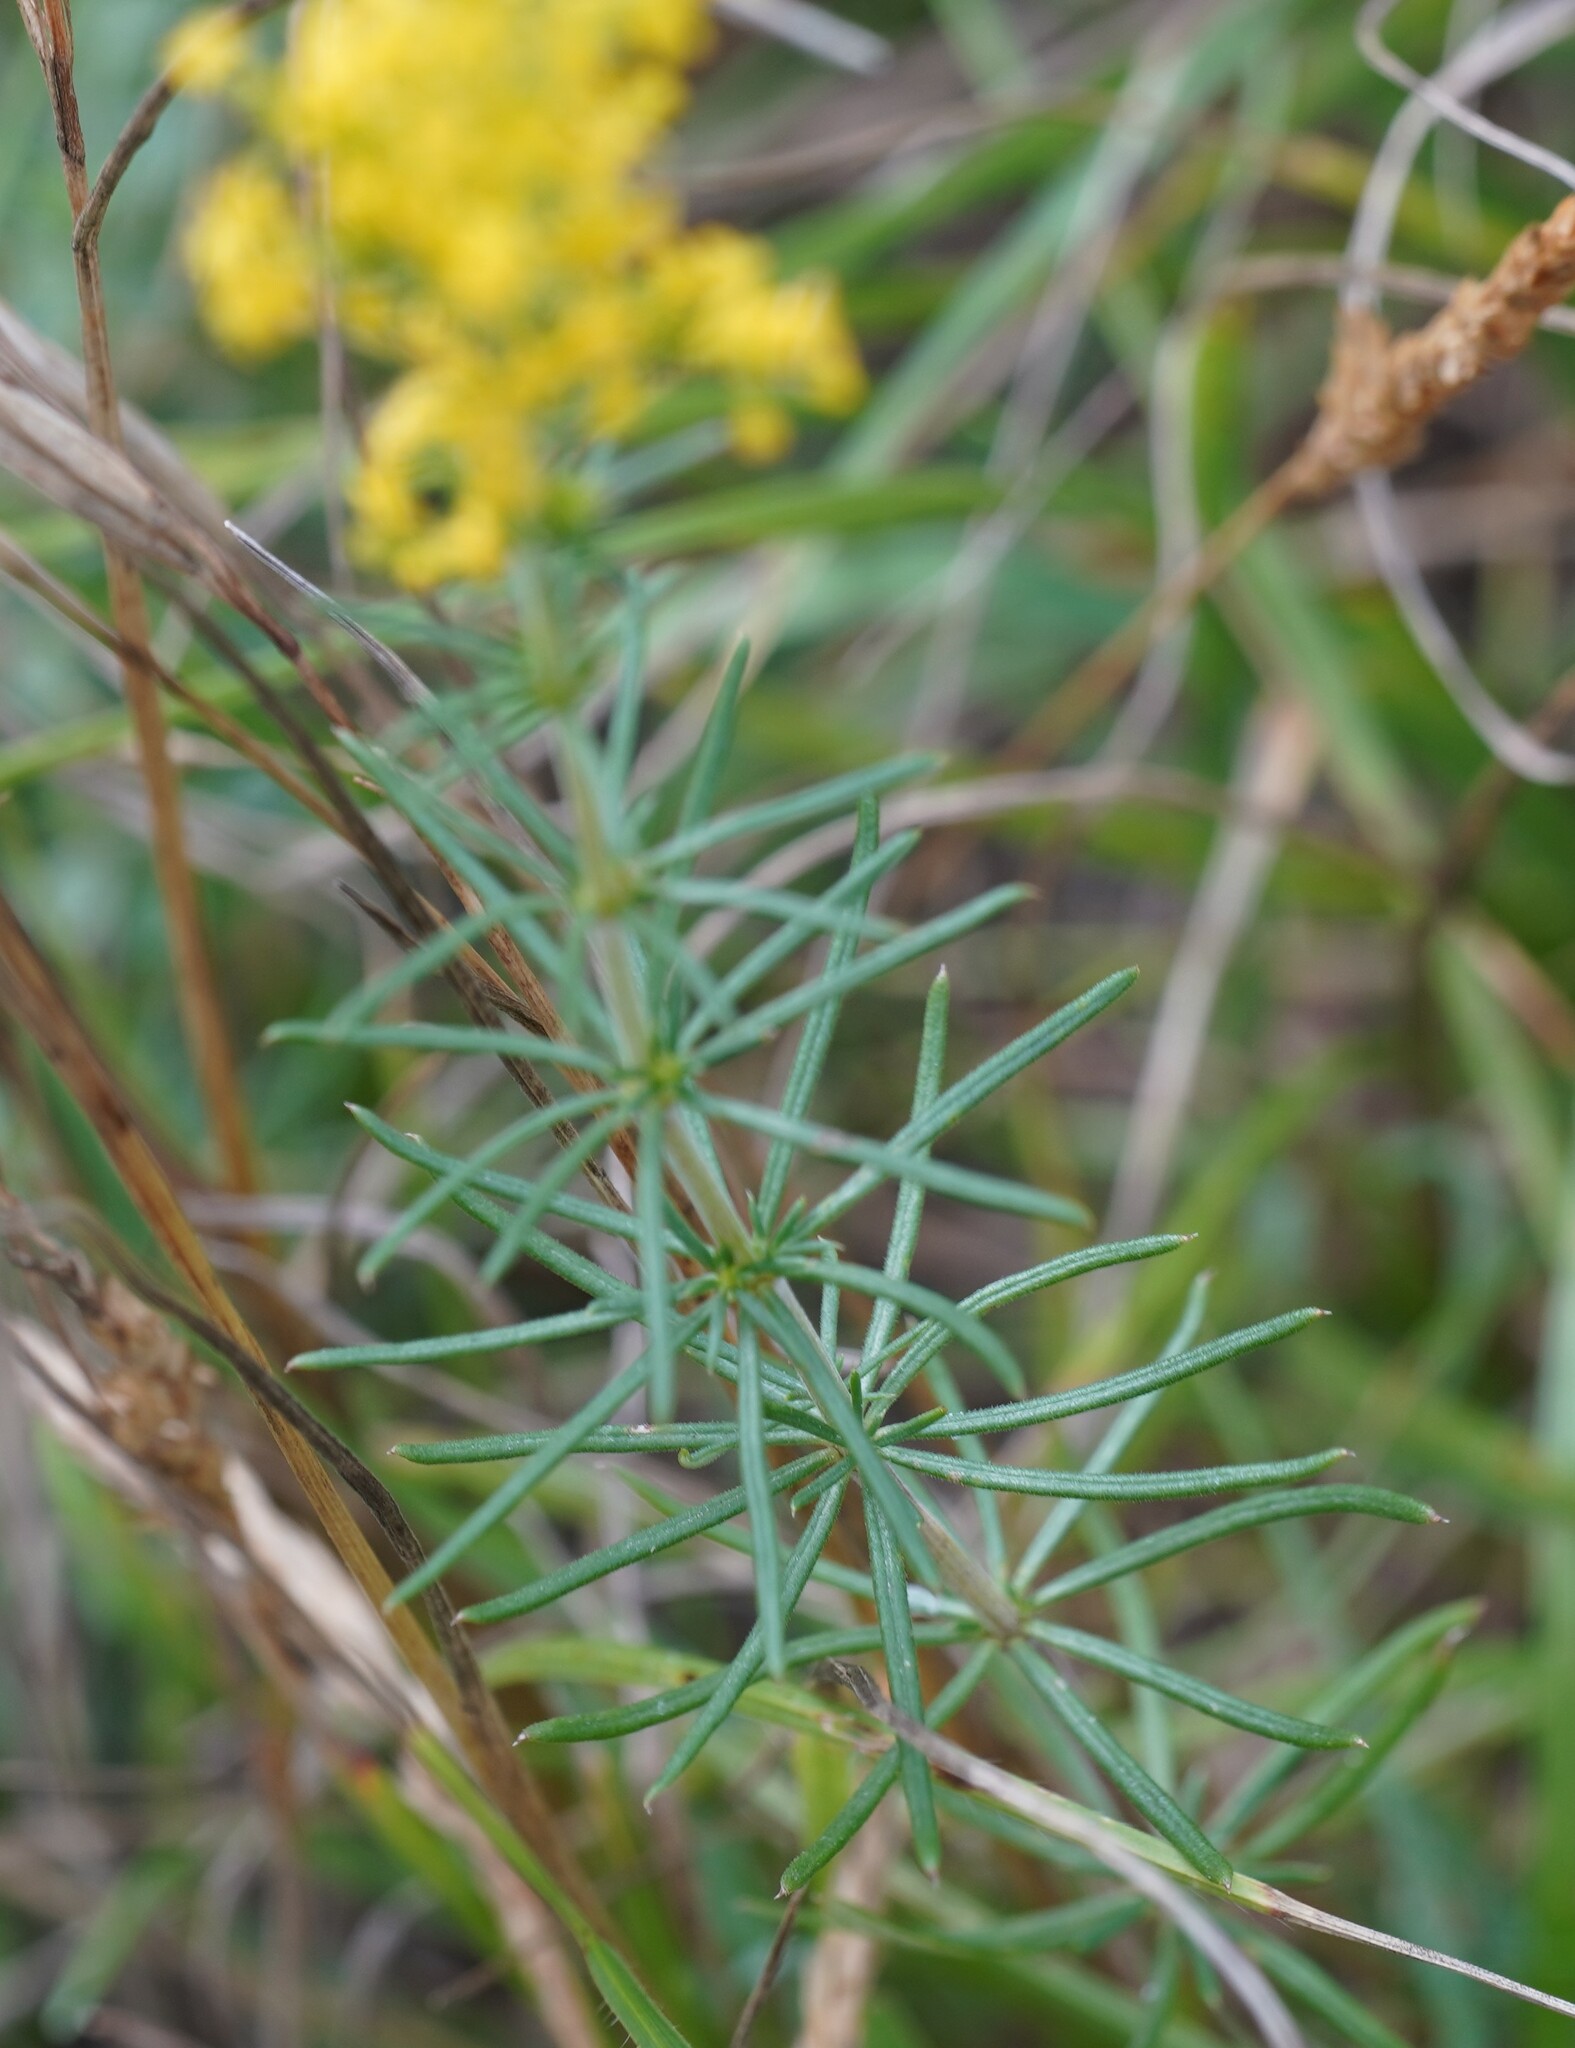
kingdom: Plantae
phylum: Tracheophyta
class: Magnoliopsida
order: Gentianales
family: Rubiaceae
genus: Galium
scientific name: Galium verum
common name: Lady's bedstraw
